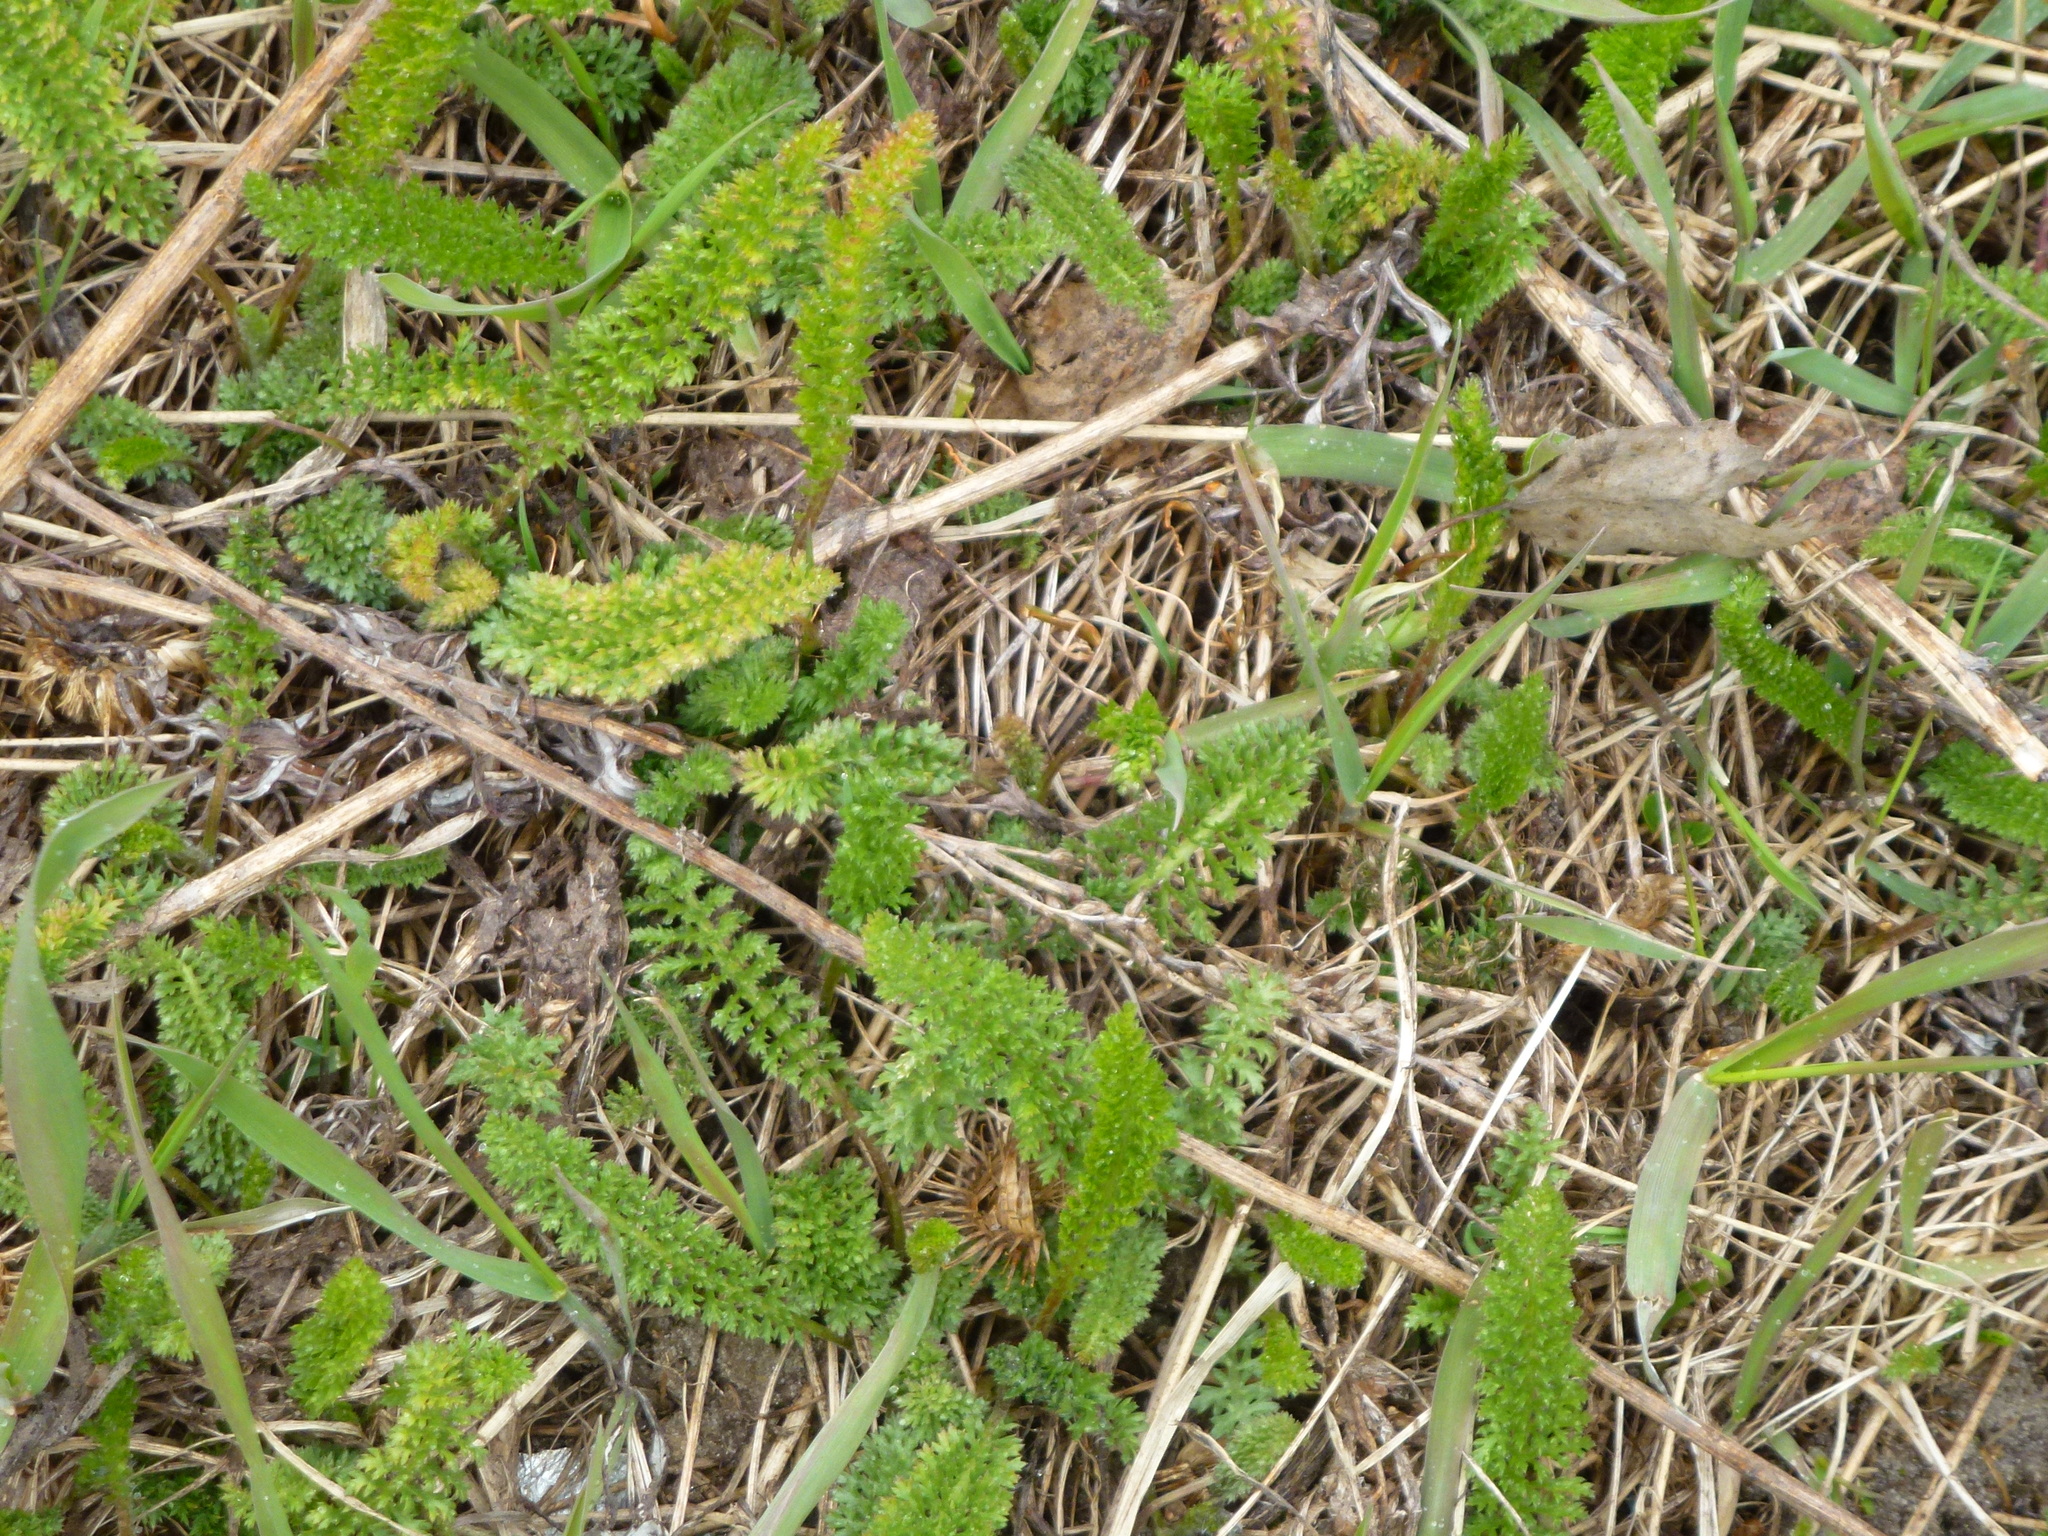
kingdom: Plantae
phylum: Tracheophyta
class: Magnoliopsida
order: Asterales
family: Asteraceae
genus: Achillea
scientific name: Achillea millefolium
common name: Yarrow
